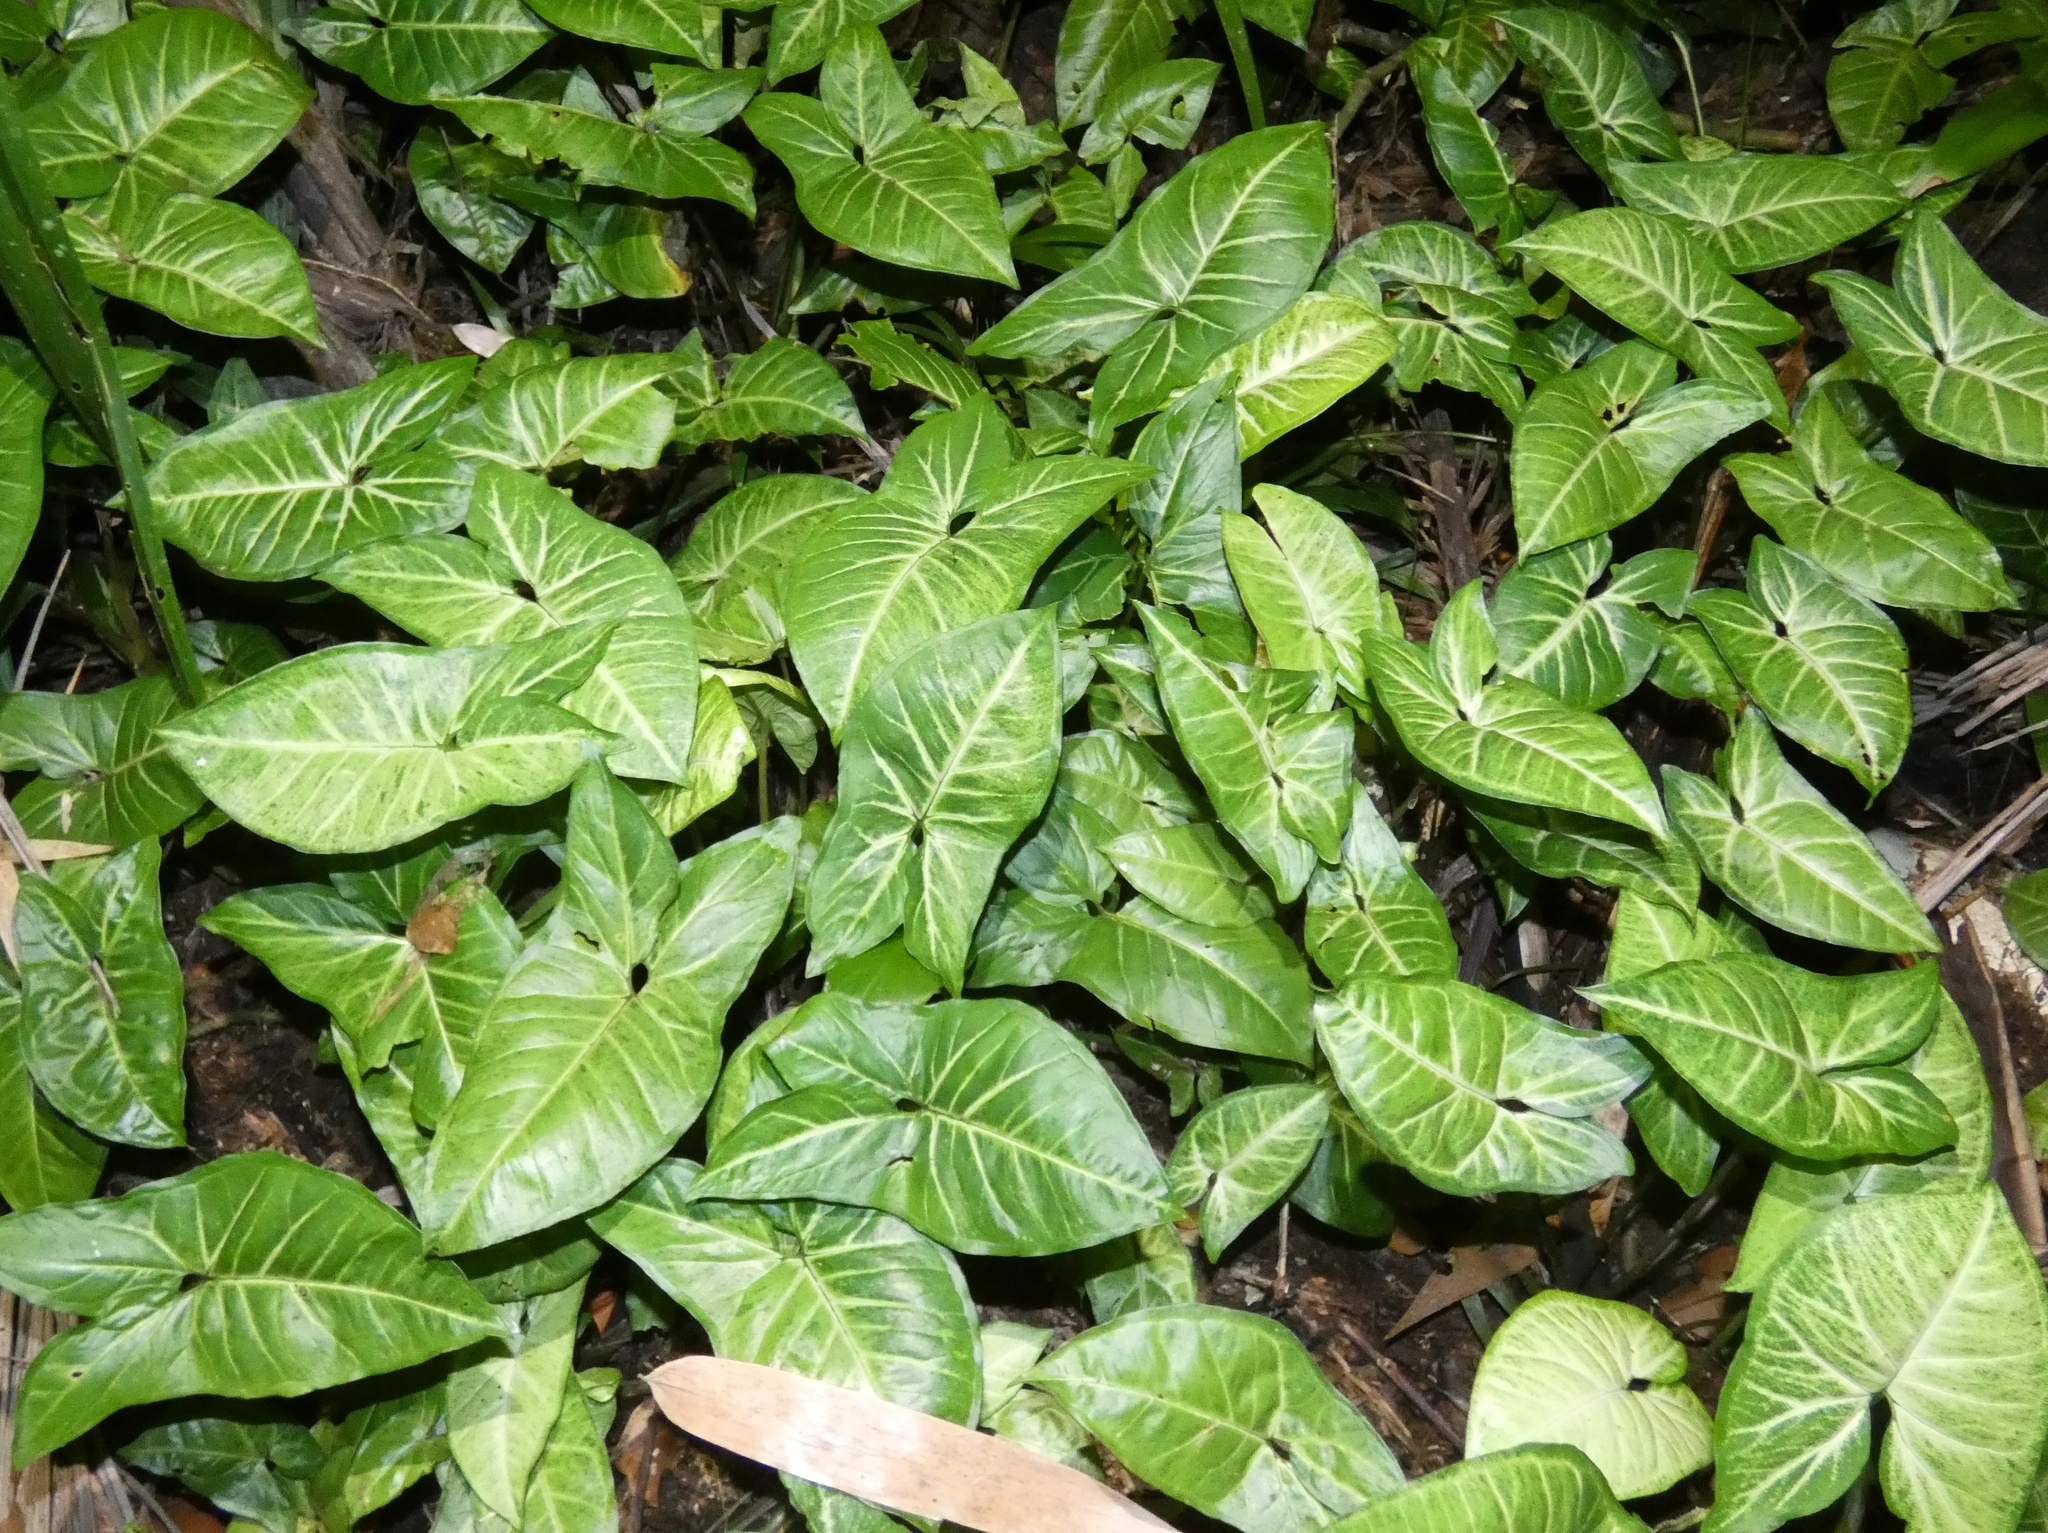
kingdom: Plantae
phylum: Tracheophyta
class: Liliopsida
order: Alismatales
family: Araceae
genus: Syngonium
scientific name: Syngonium podophyllum
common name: American evergreen
